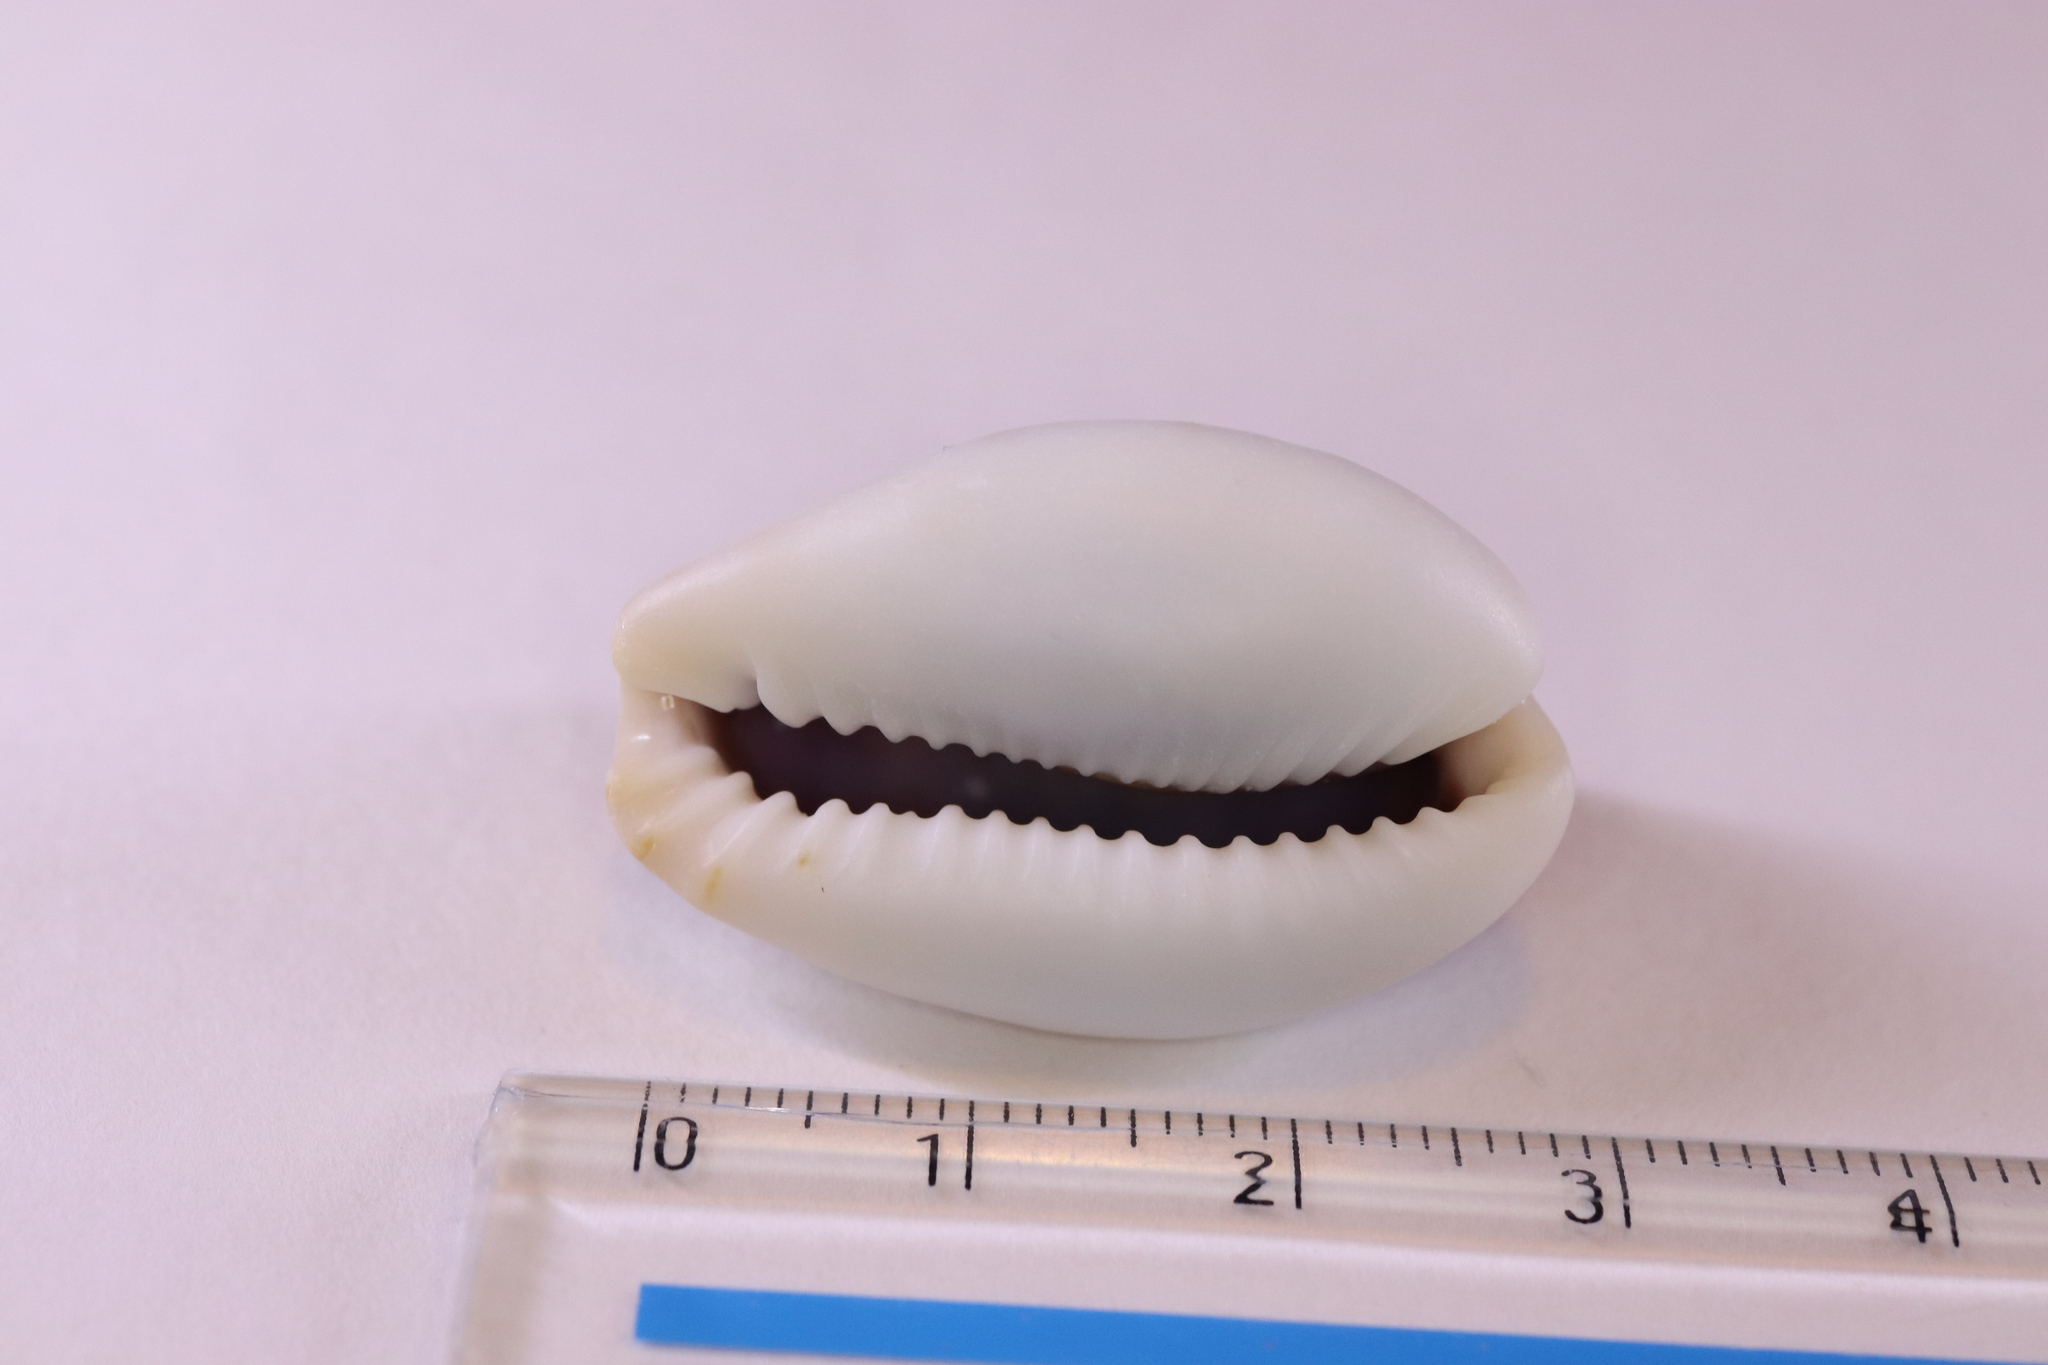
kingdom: Animalia
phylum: Mollusca
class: Gastropoda
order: Littorinimorpha
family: Cypraeidae
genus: Naria
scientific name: Naria boivinii
